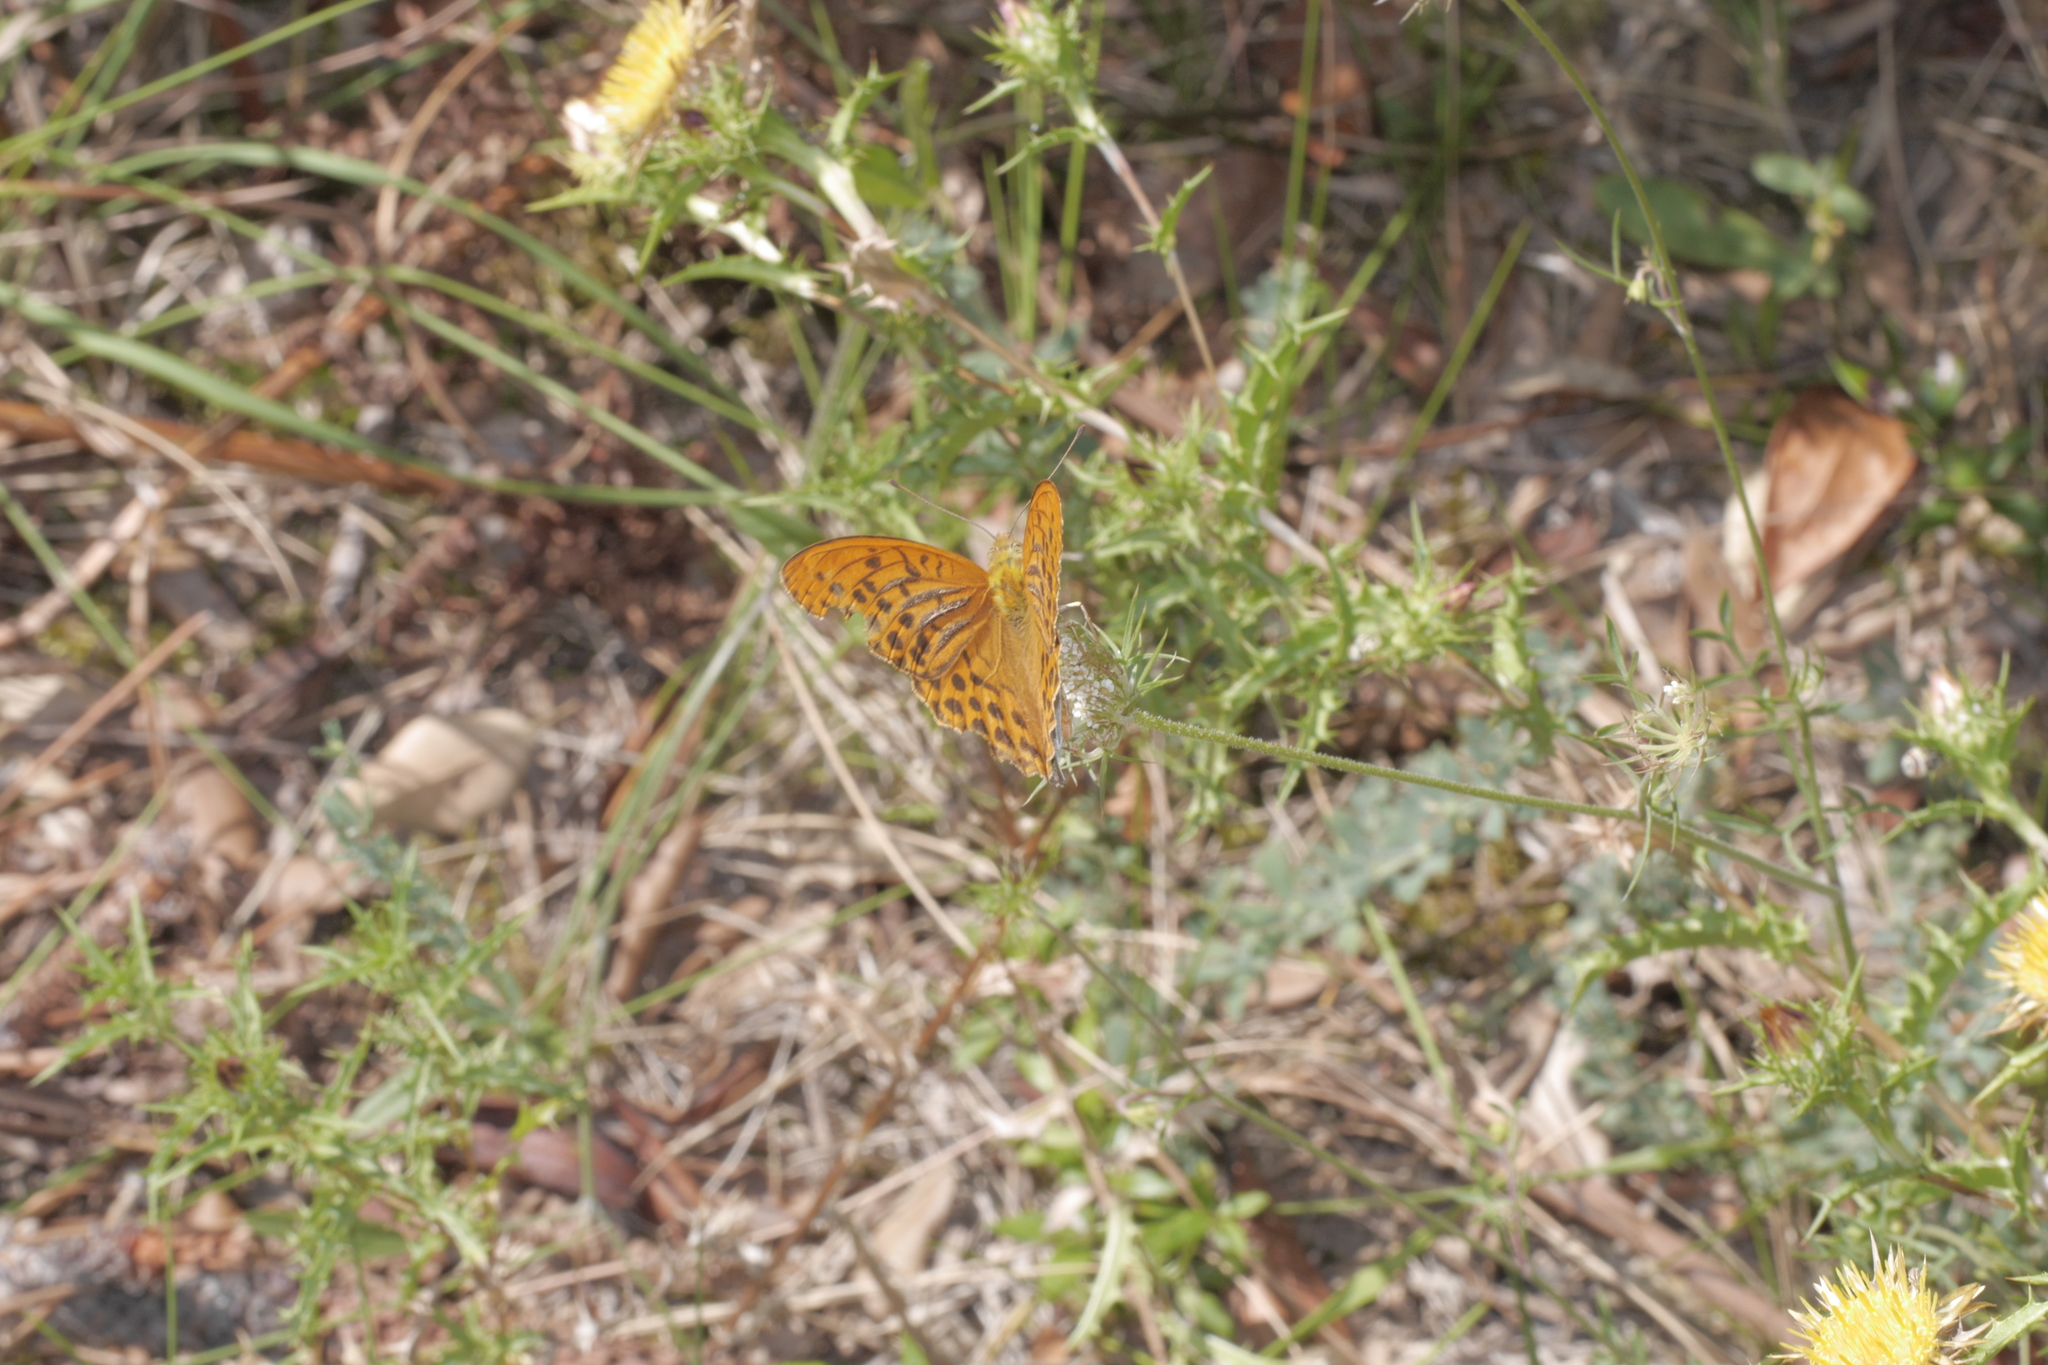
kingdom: Animalia
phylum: Arthropoda
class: Insecta
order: Lepidoptera
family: Nymphalidae
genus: Argynnis
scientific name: Argynnis paphia
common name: Silver-washed fritillary
